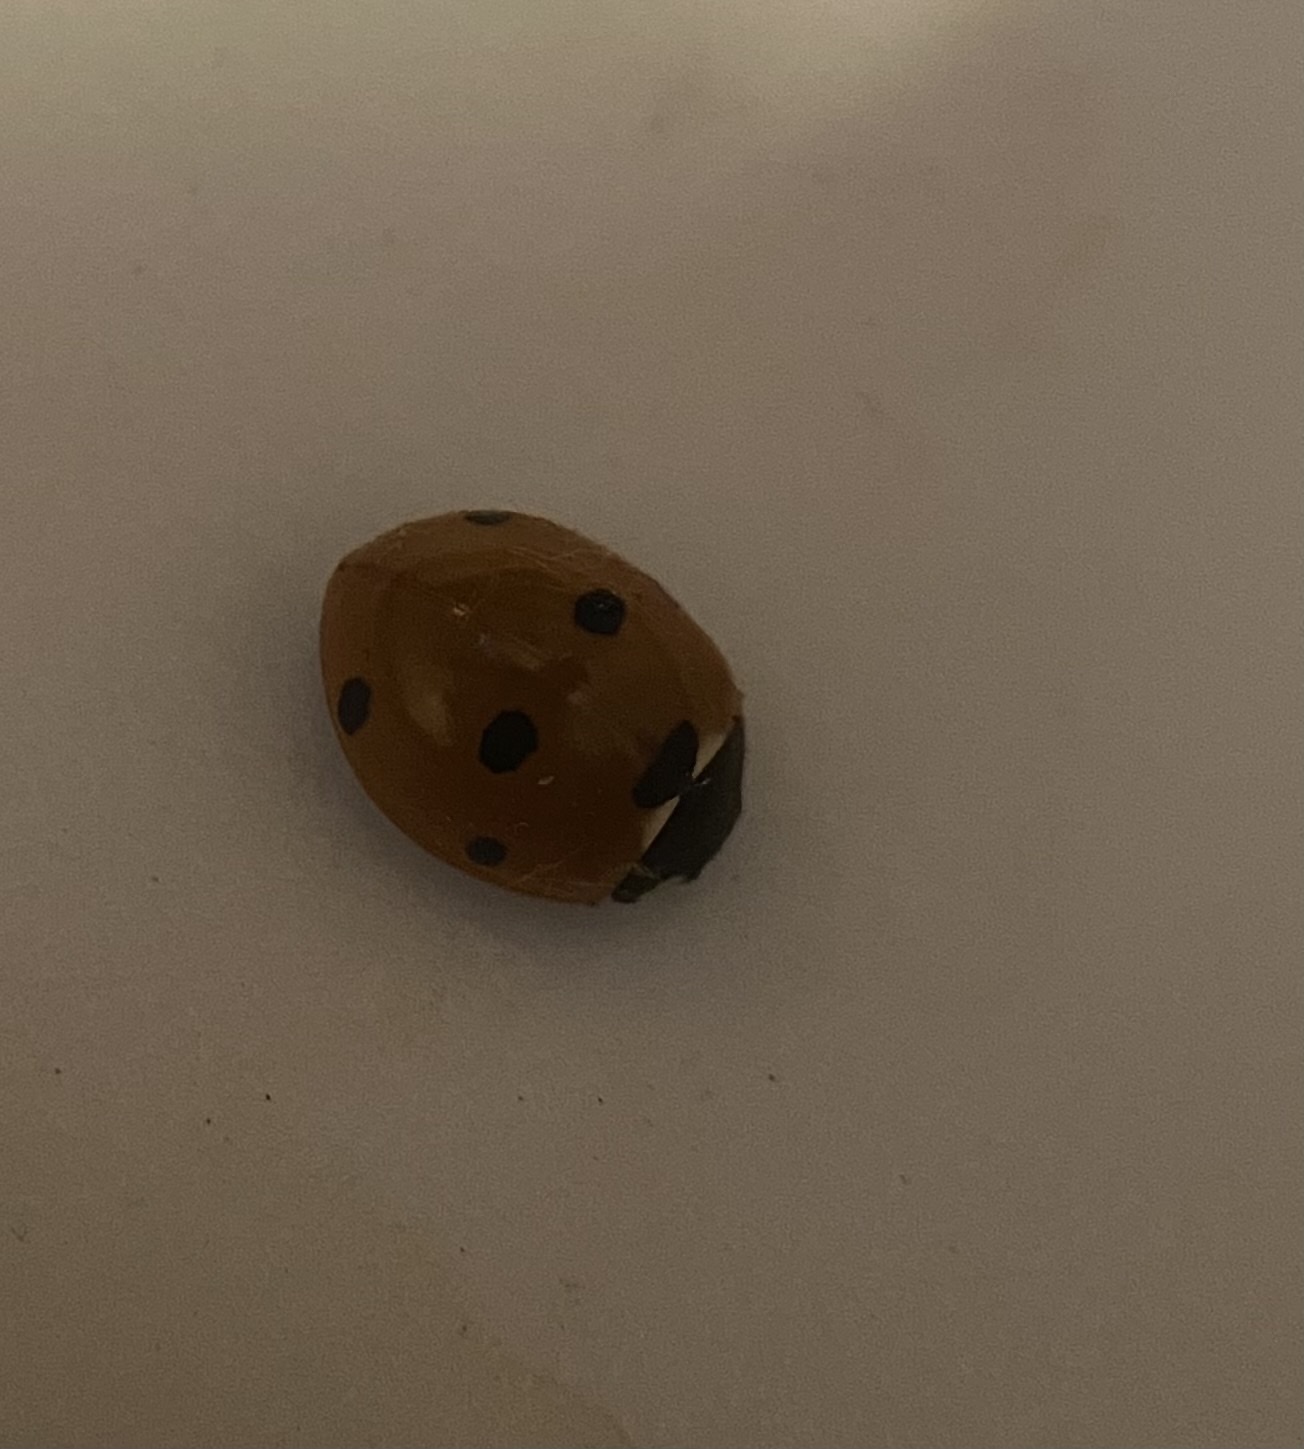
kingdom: Animalia
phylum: Arthropoda
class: Insecta
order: Coleoptera
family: Coccinellidae
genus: Coccinella
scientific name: Coccinella septempunctata
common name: Sevenspotted lady beetle
